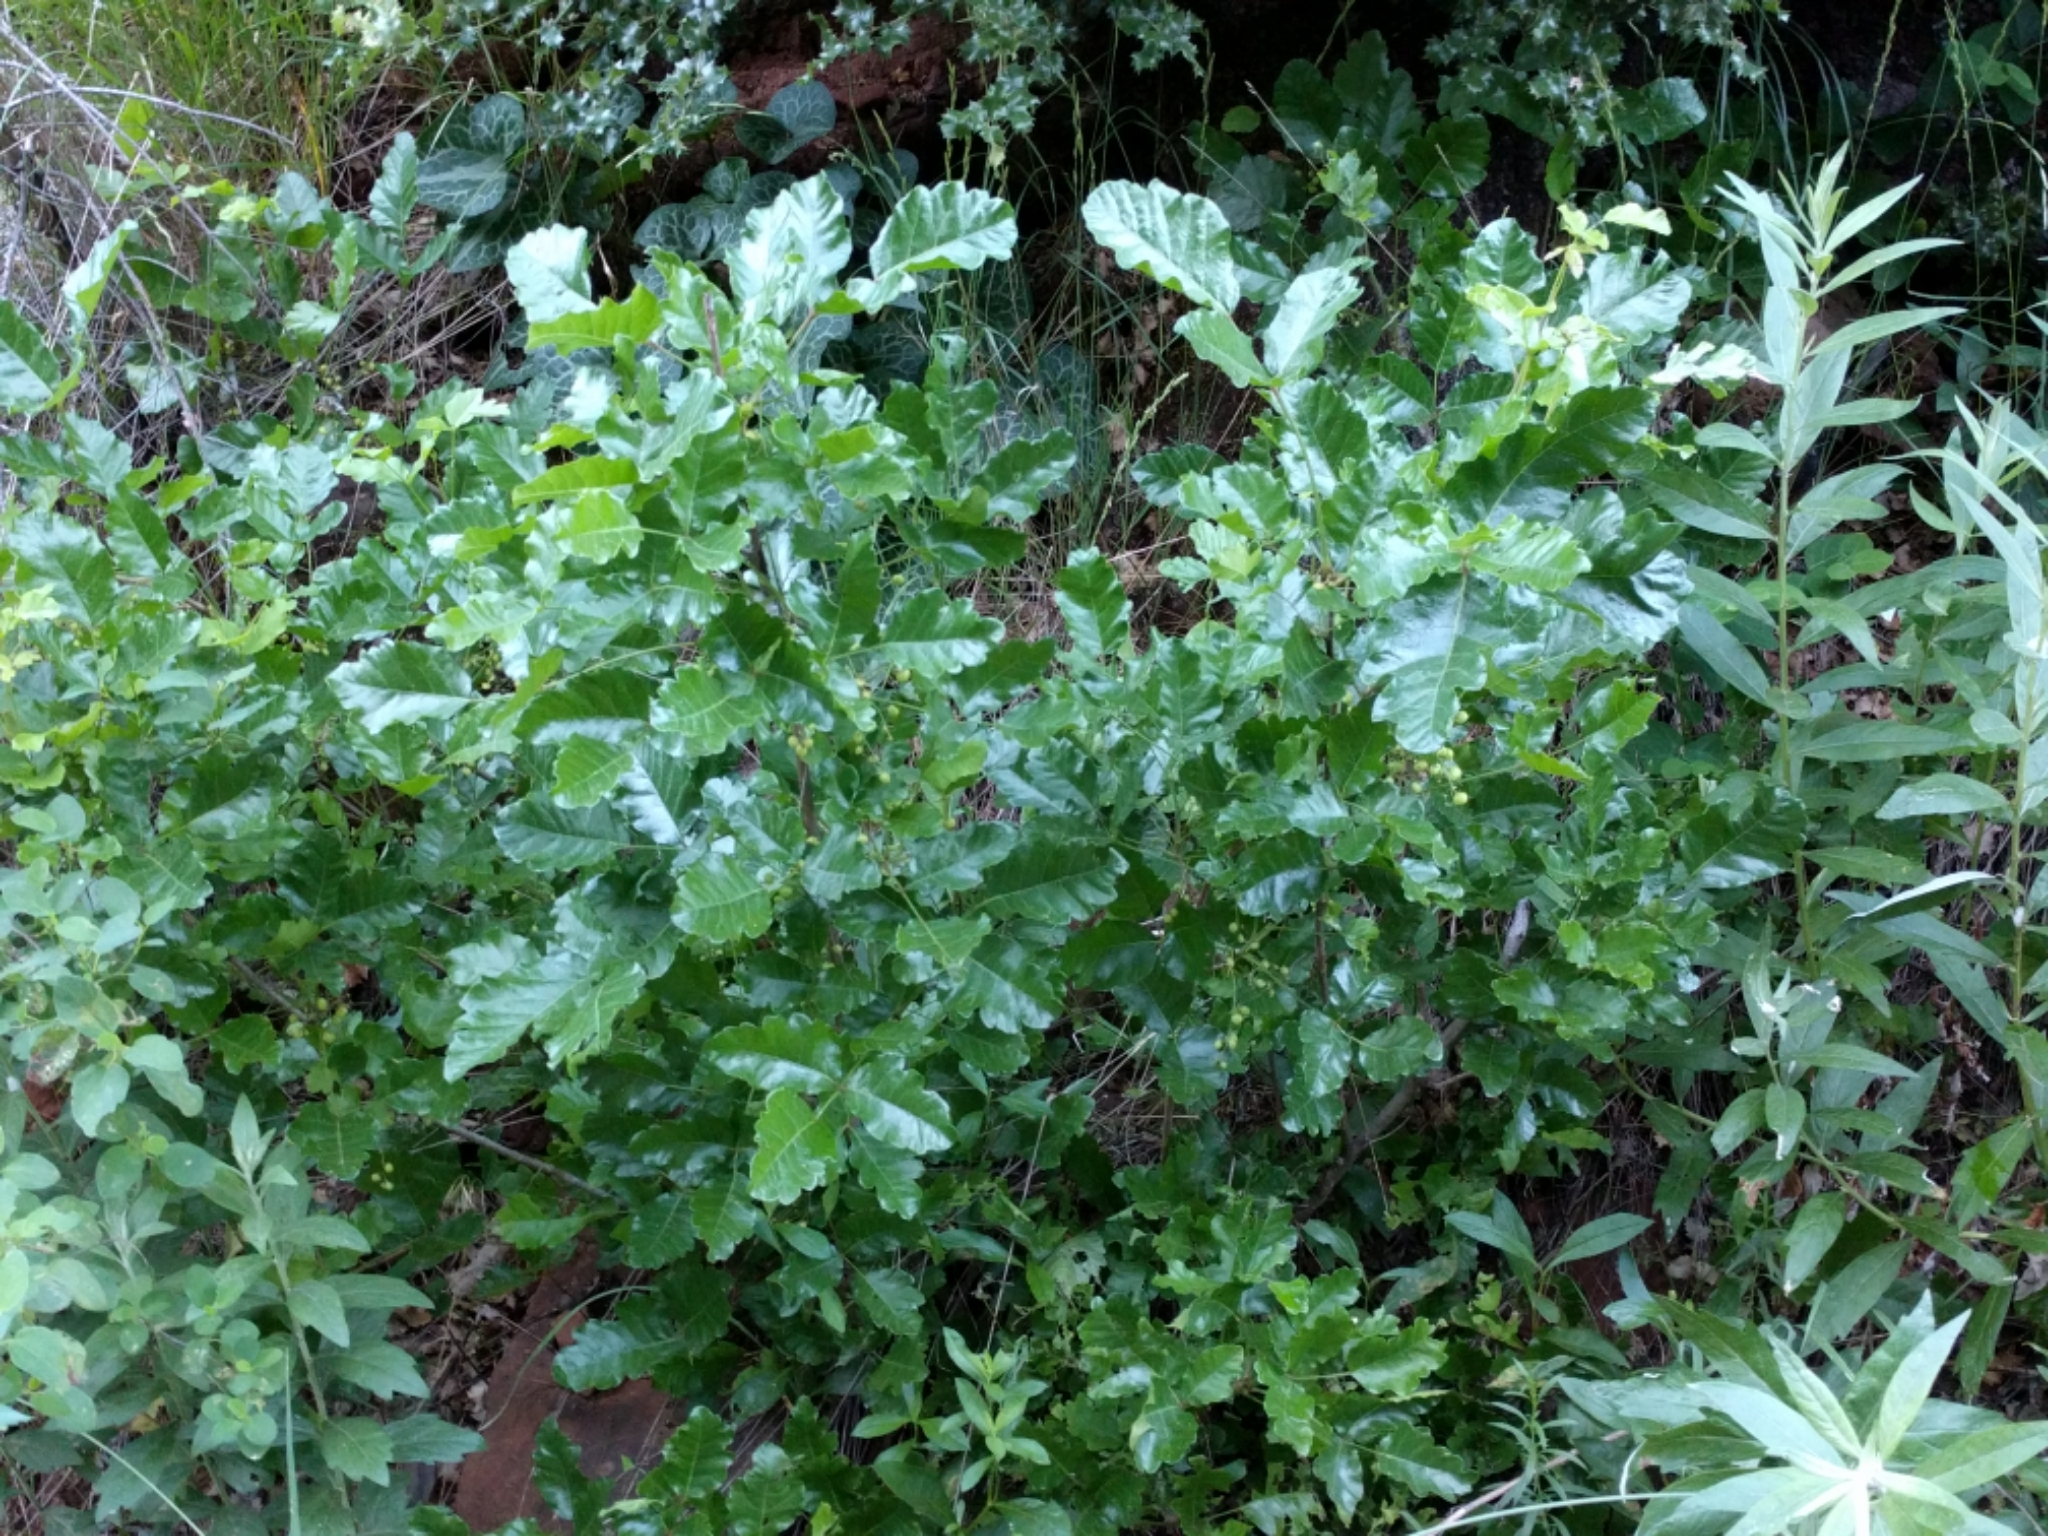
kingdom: Plantae
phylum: Tracheophyta
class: Magnoliopsida
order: Sapindales
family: Anacardiaceae
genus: Toxicodendron
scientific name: Toxicodendron diversilobum
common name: Pacific poison-oak
